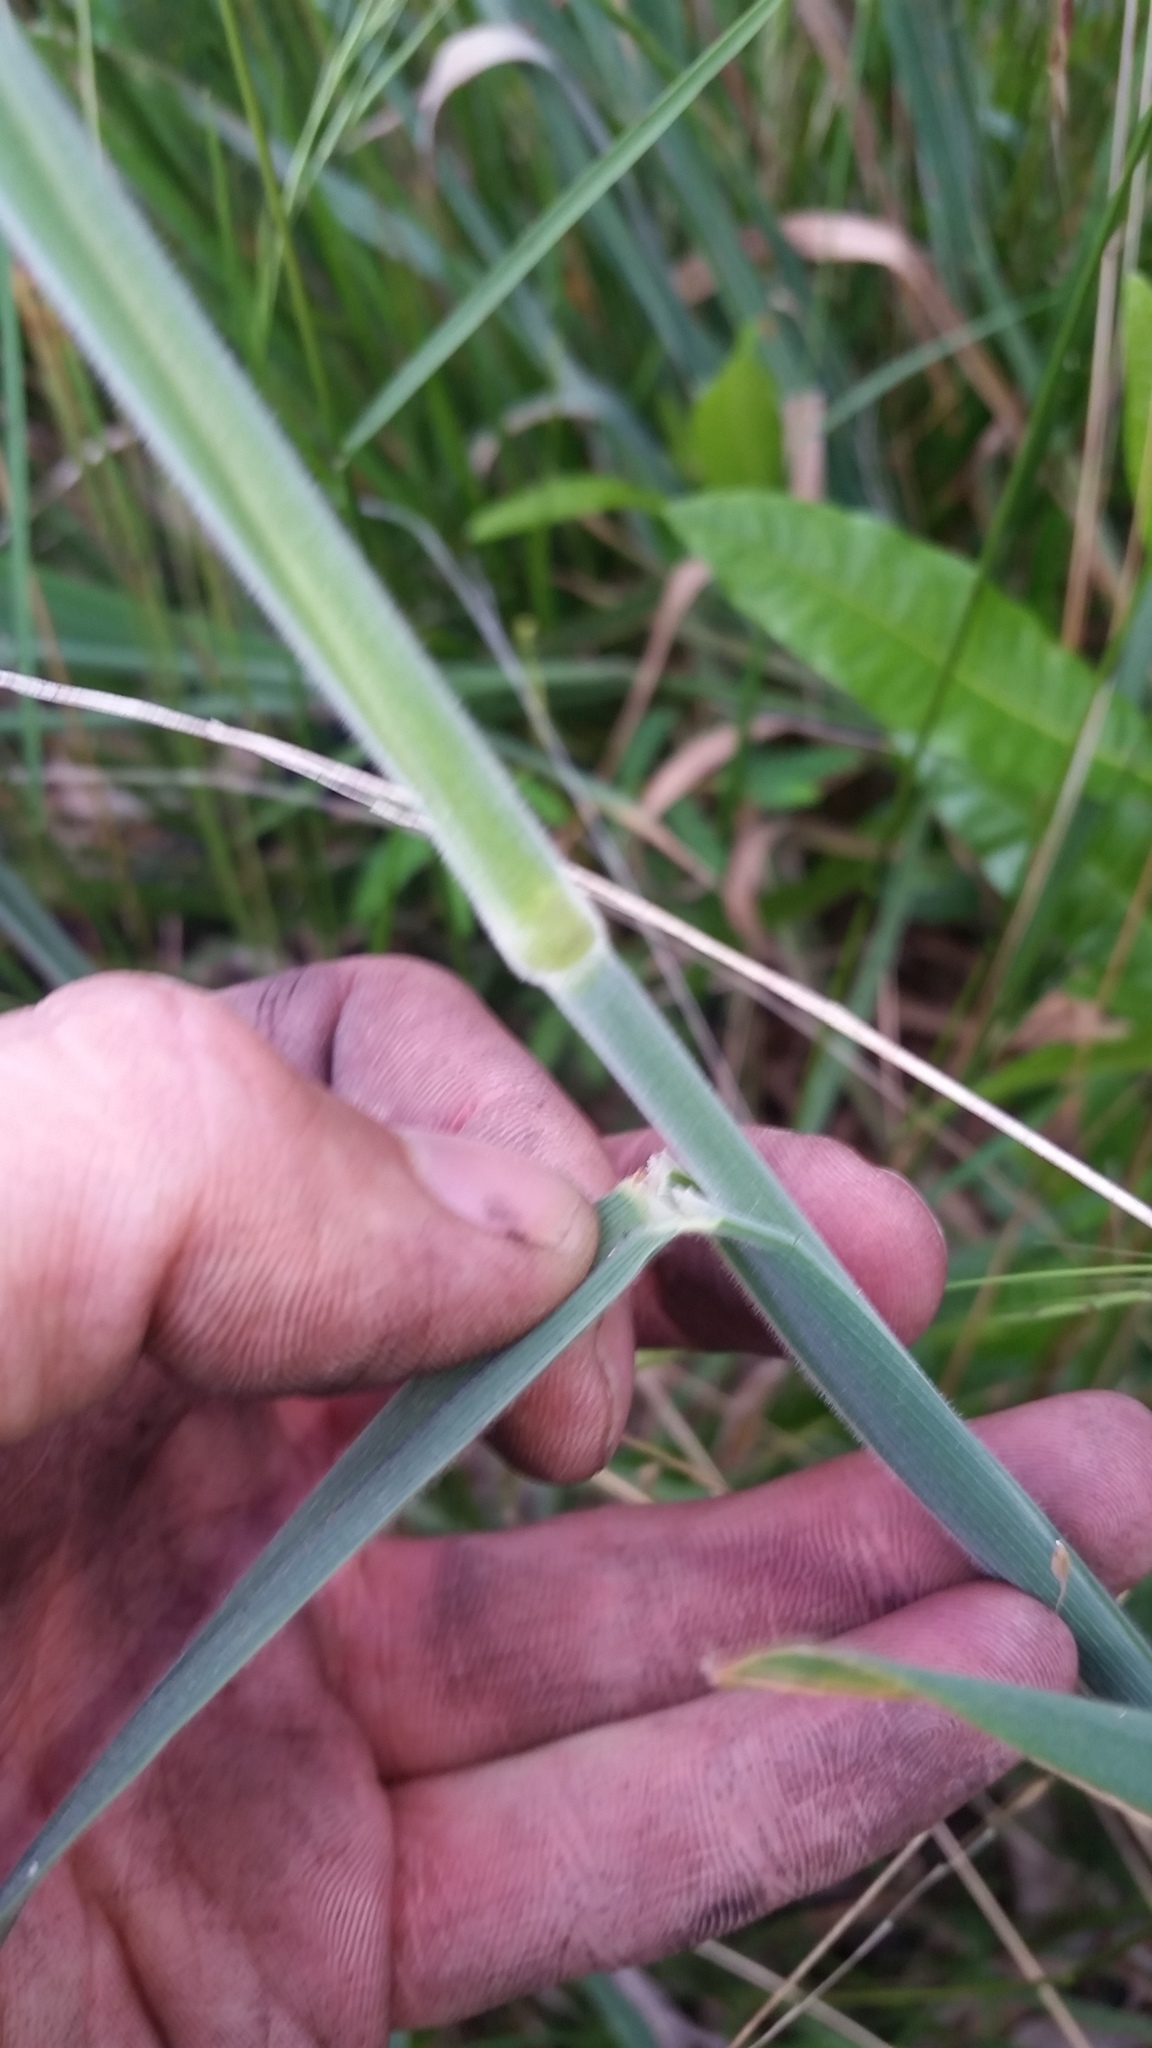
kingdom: Plantae
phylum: Tracheophyta
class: Liliopsida
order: Poales
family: Poaceae
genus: Holcus
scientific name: Holcus lanatus
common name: Yorkshire-fog
